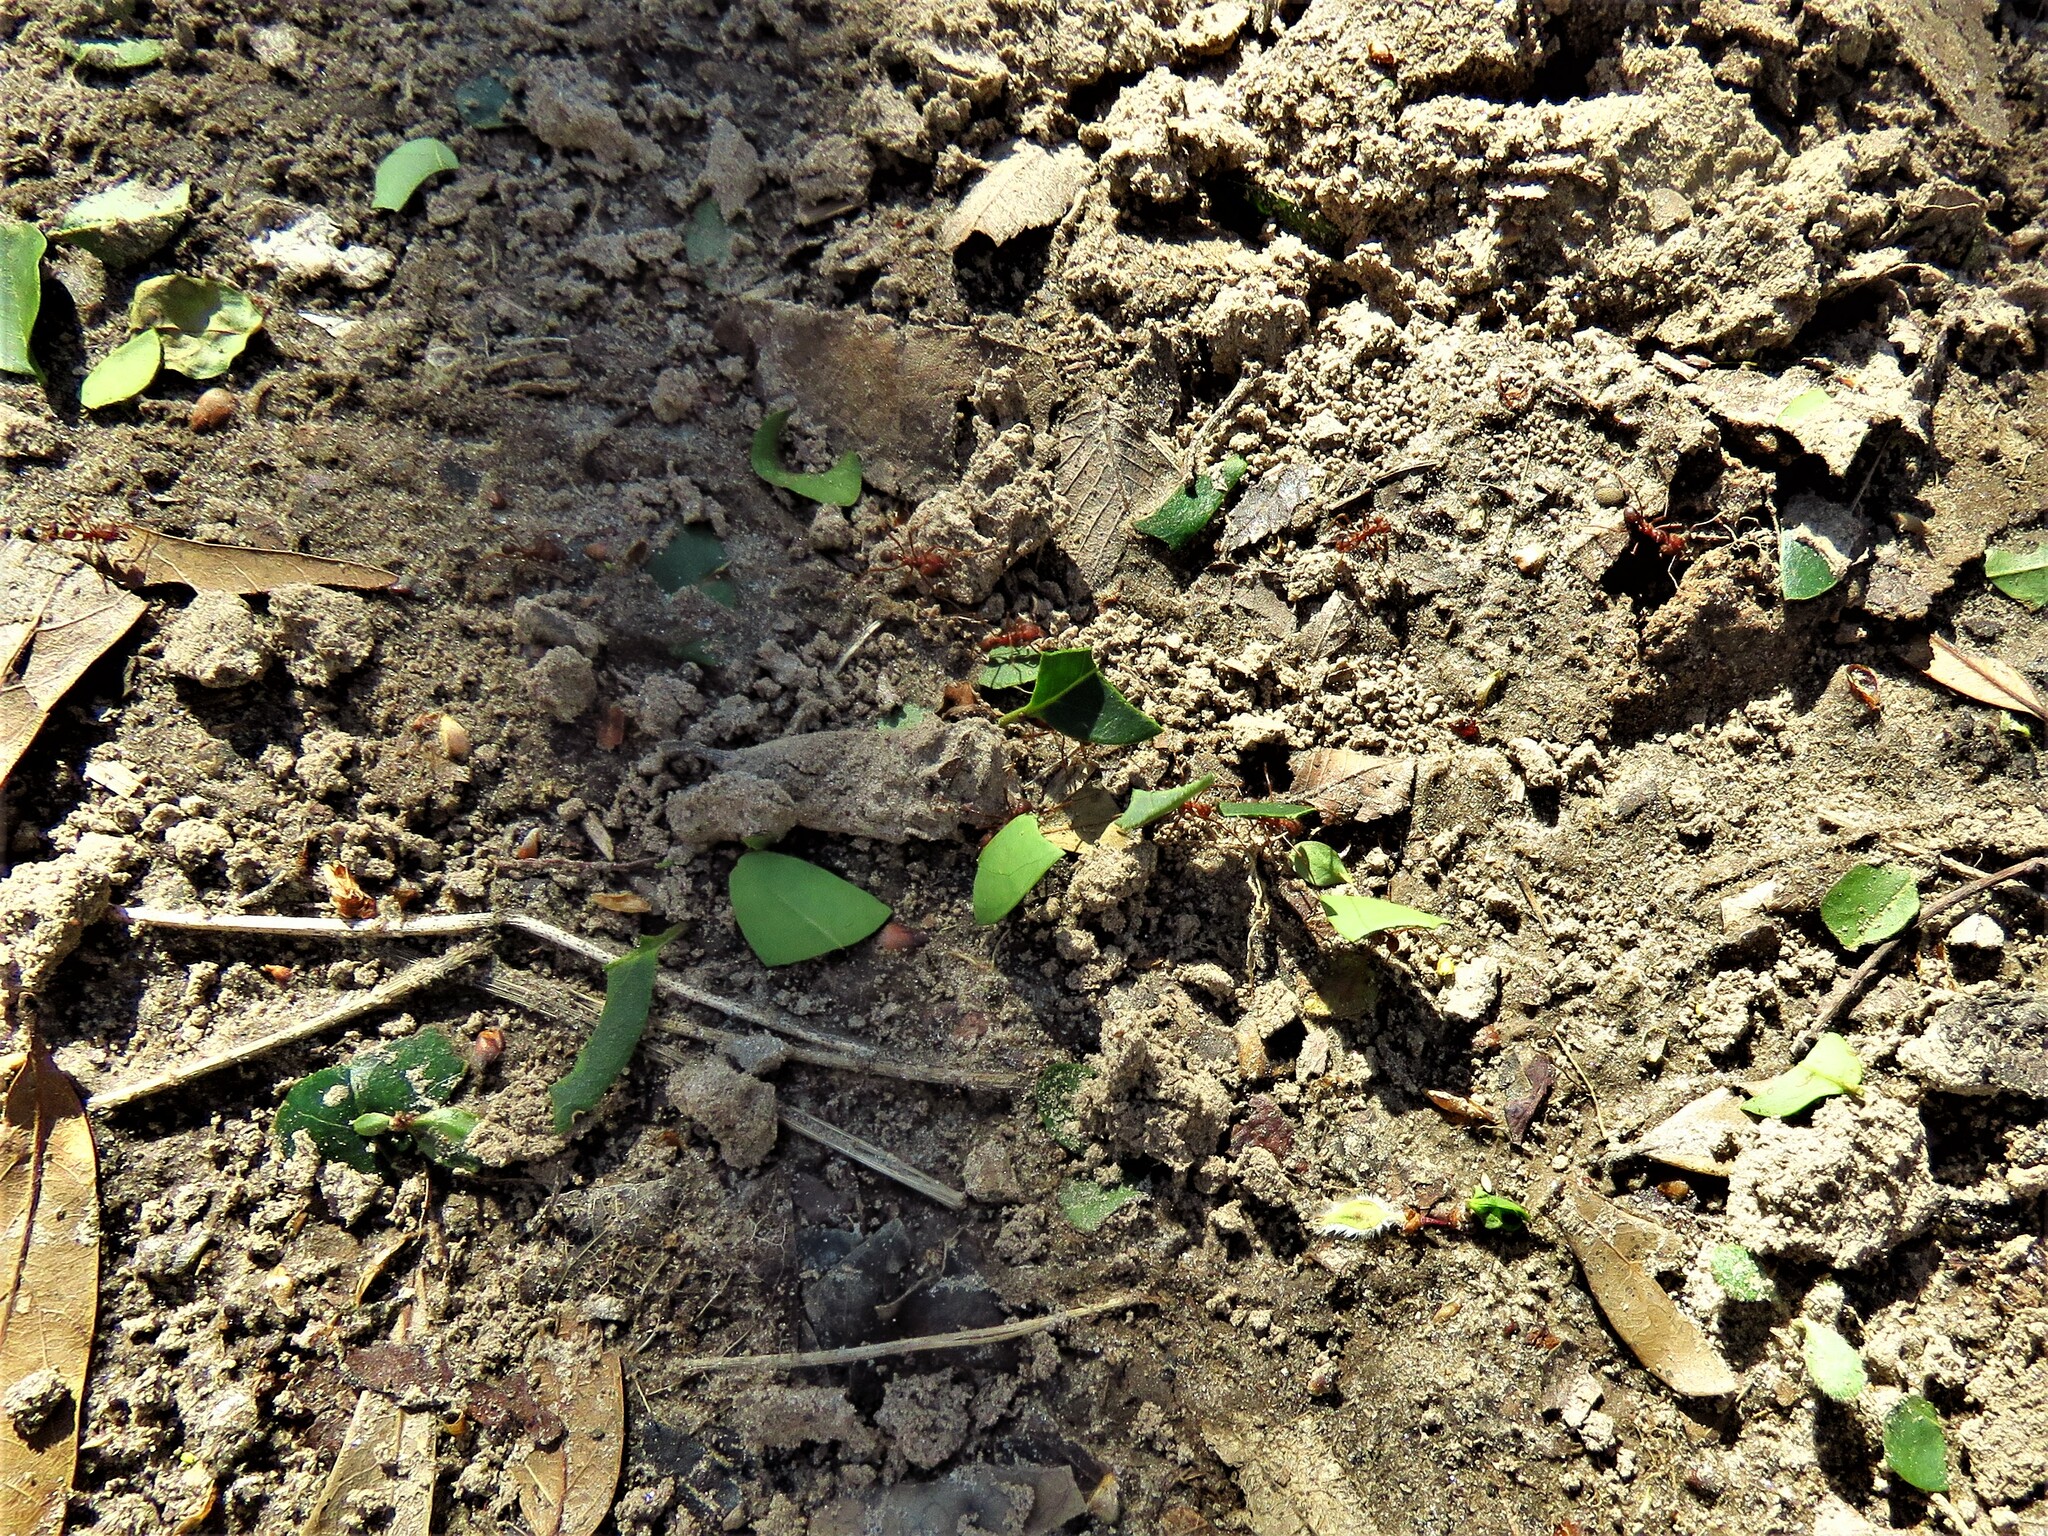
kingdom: Animalia
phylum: Arthropoda
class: Insecta
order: Hymenoptera
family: Formicidae
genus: Atta
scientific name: Atta texana
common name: Texas leafcutting ant
